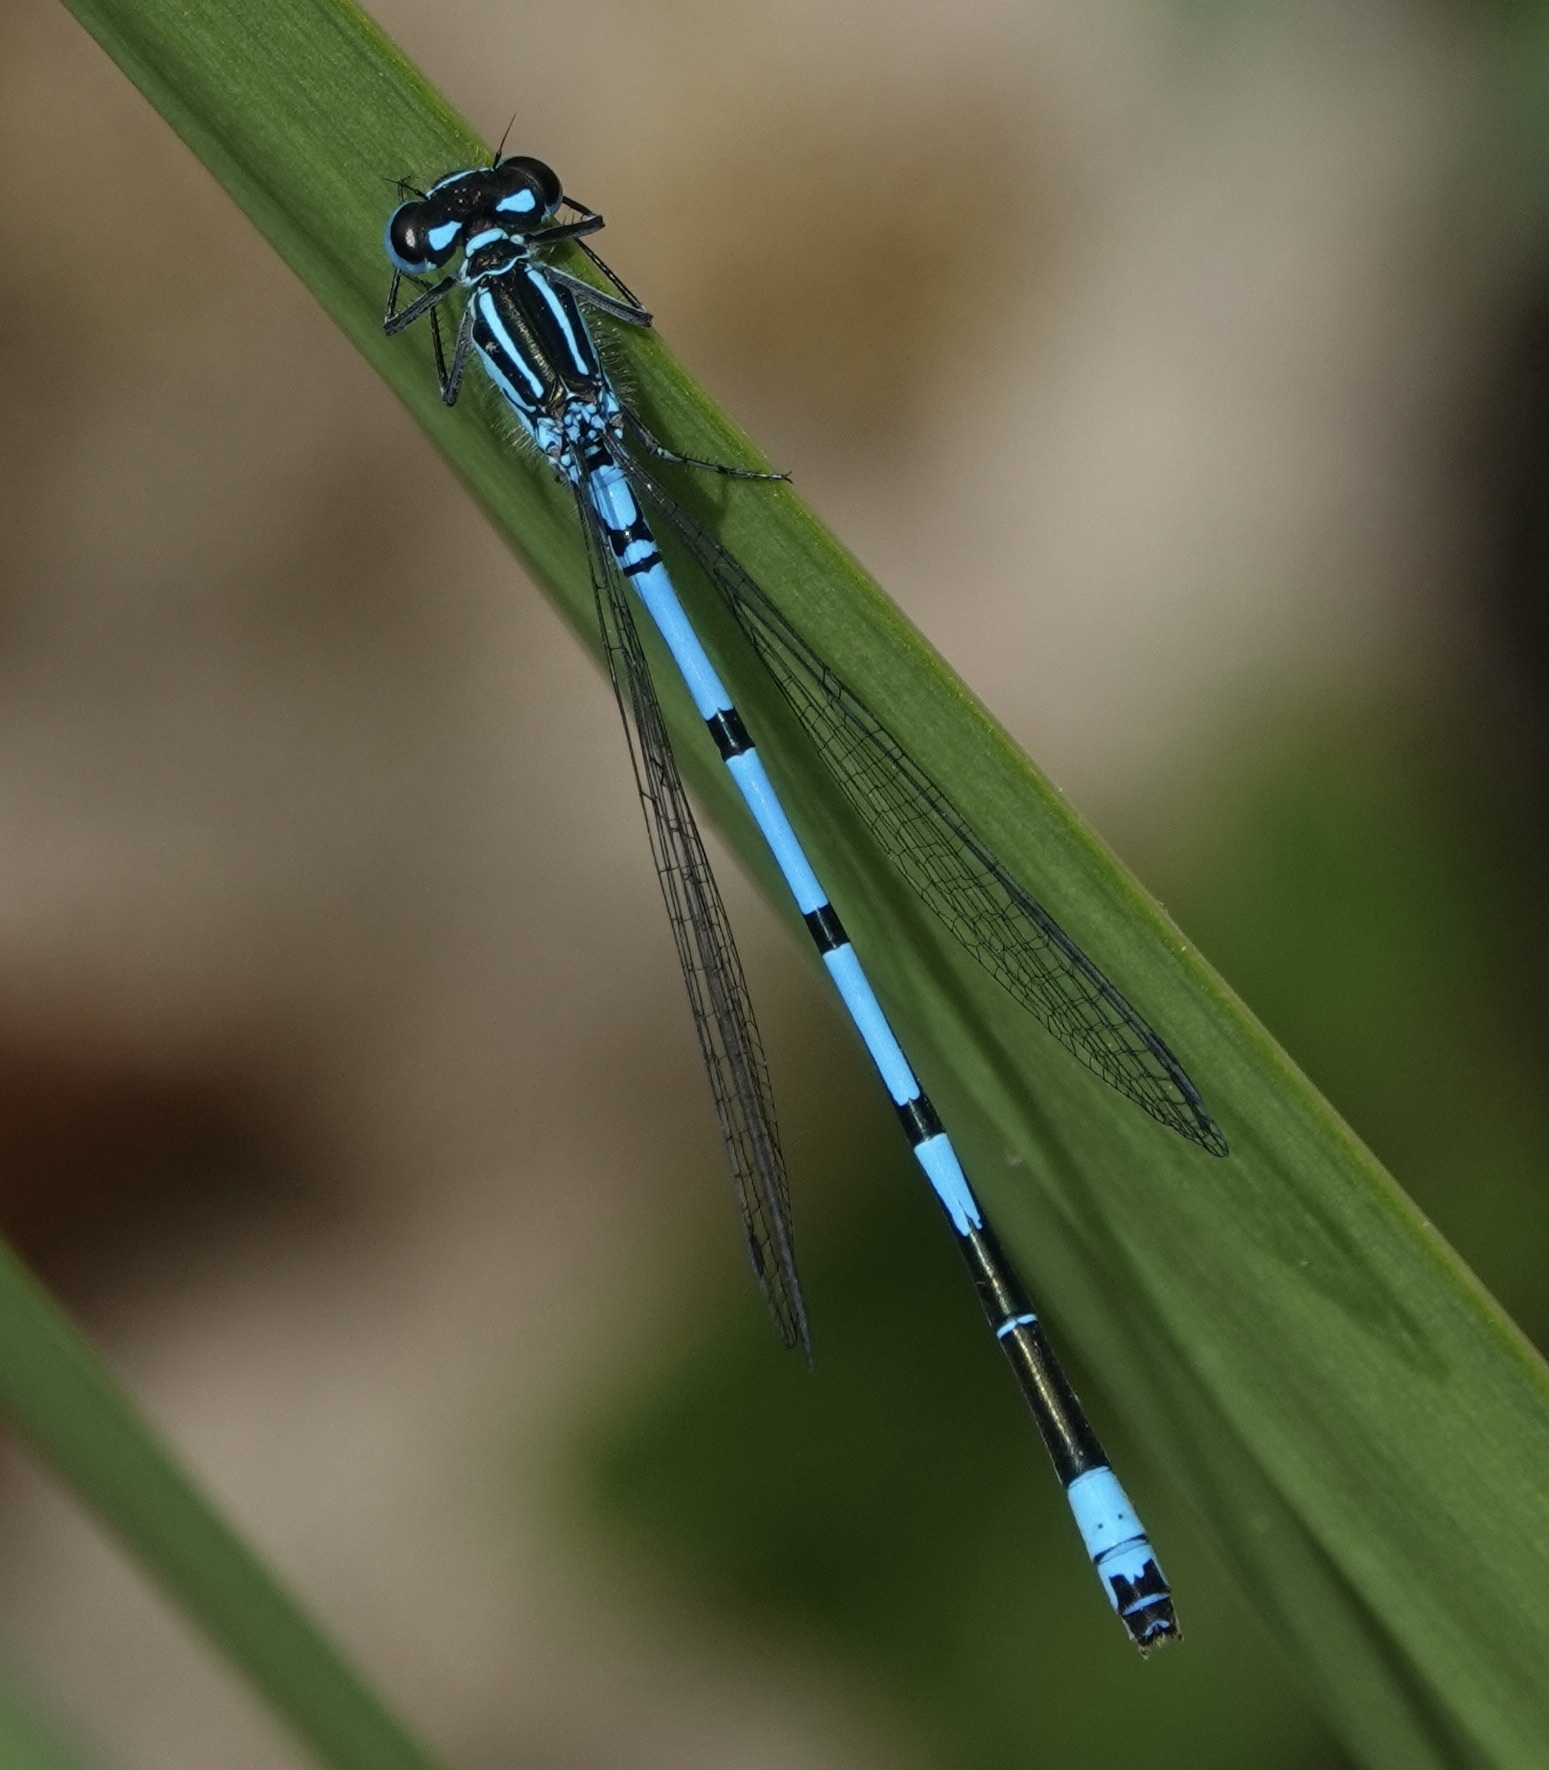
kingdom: Animalia
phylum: Arthropoda
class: Insecta
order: Odonata
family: Coenagrionidae
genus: Coenagrion
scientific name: Coenagrion puella
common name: Azure damselfly
